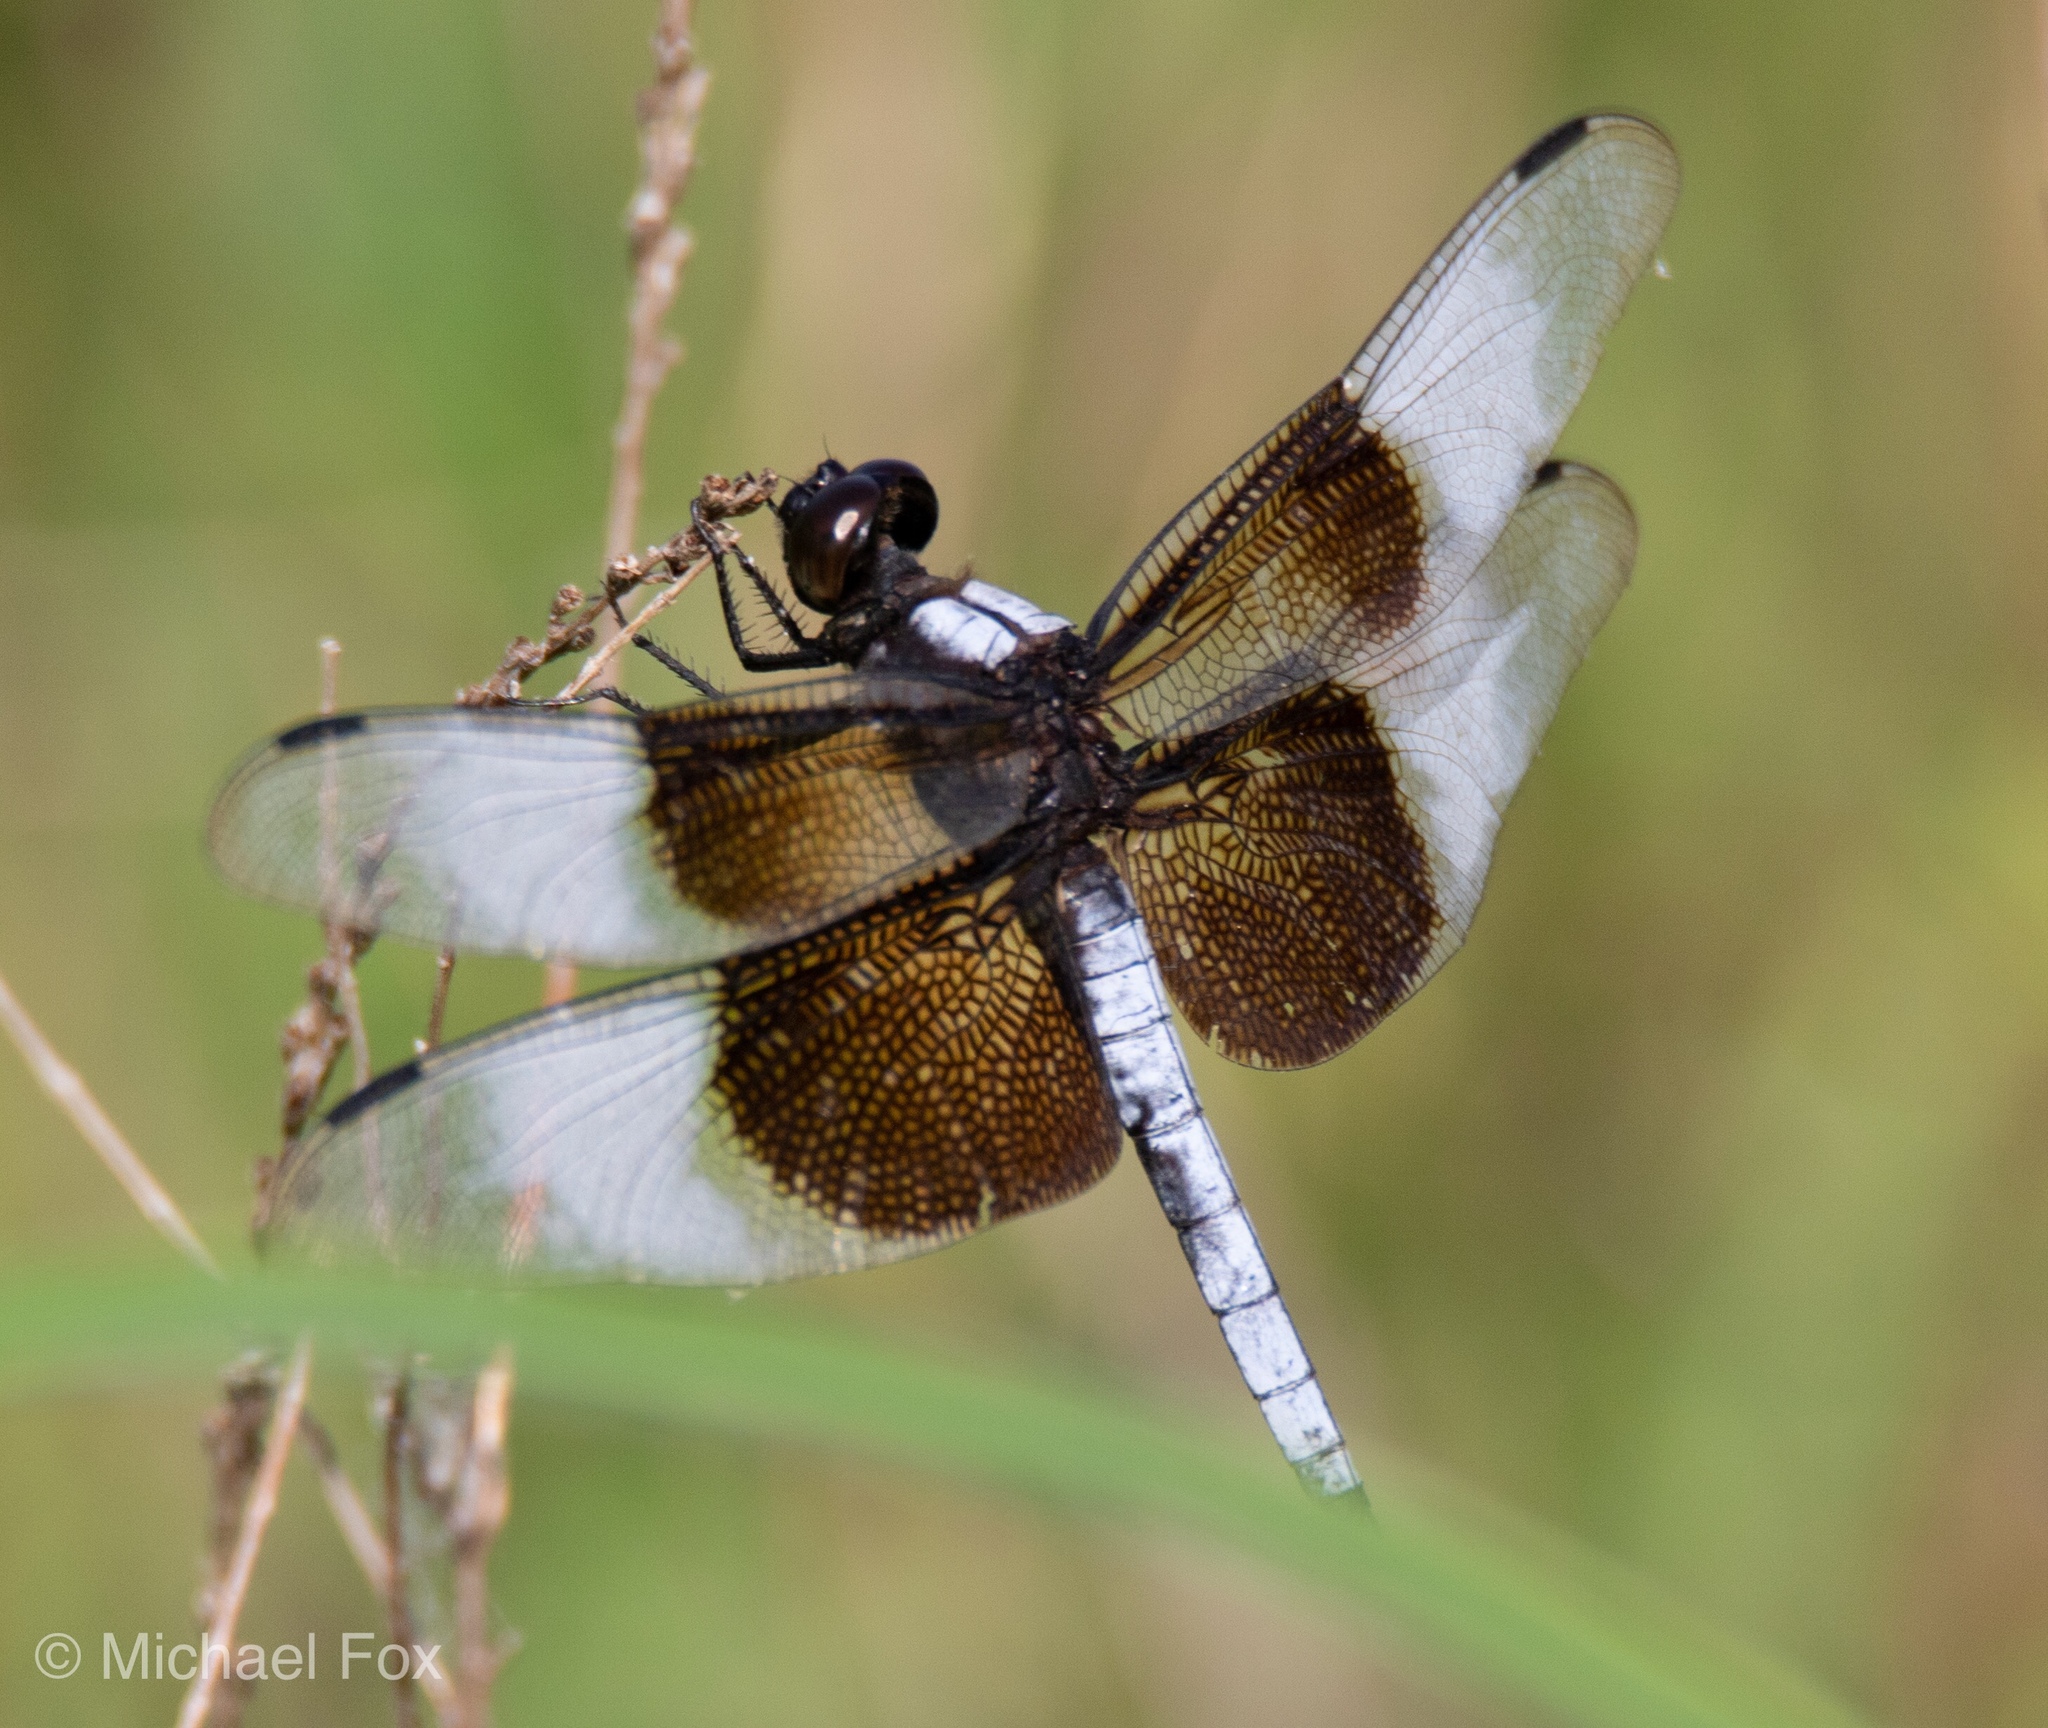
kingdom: Animalia
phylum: Arthropoda
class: Insecta
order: Odonata
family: Libellulidae
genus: Libellula
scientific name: Libellula luctuosa
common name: Widow skimmer
